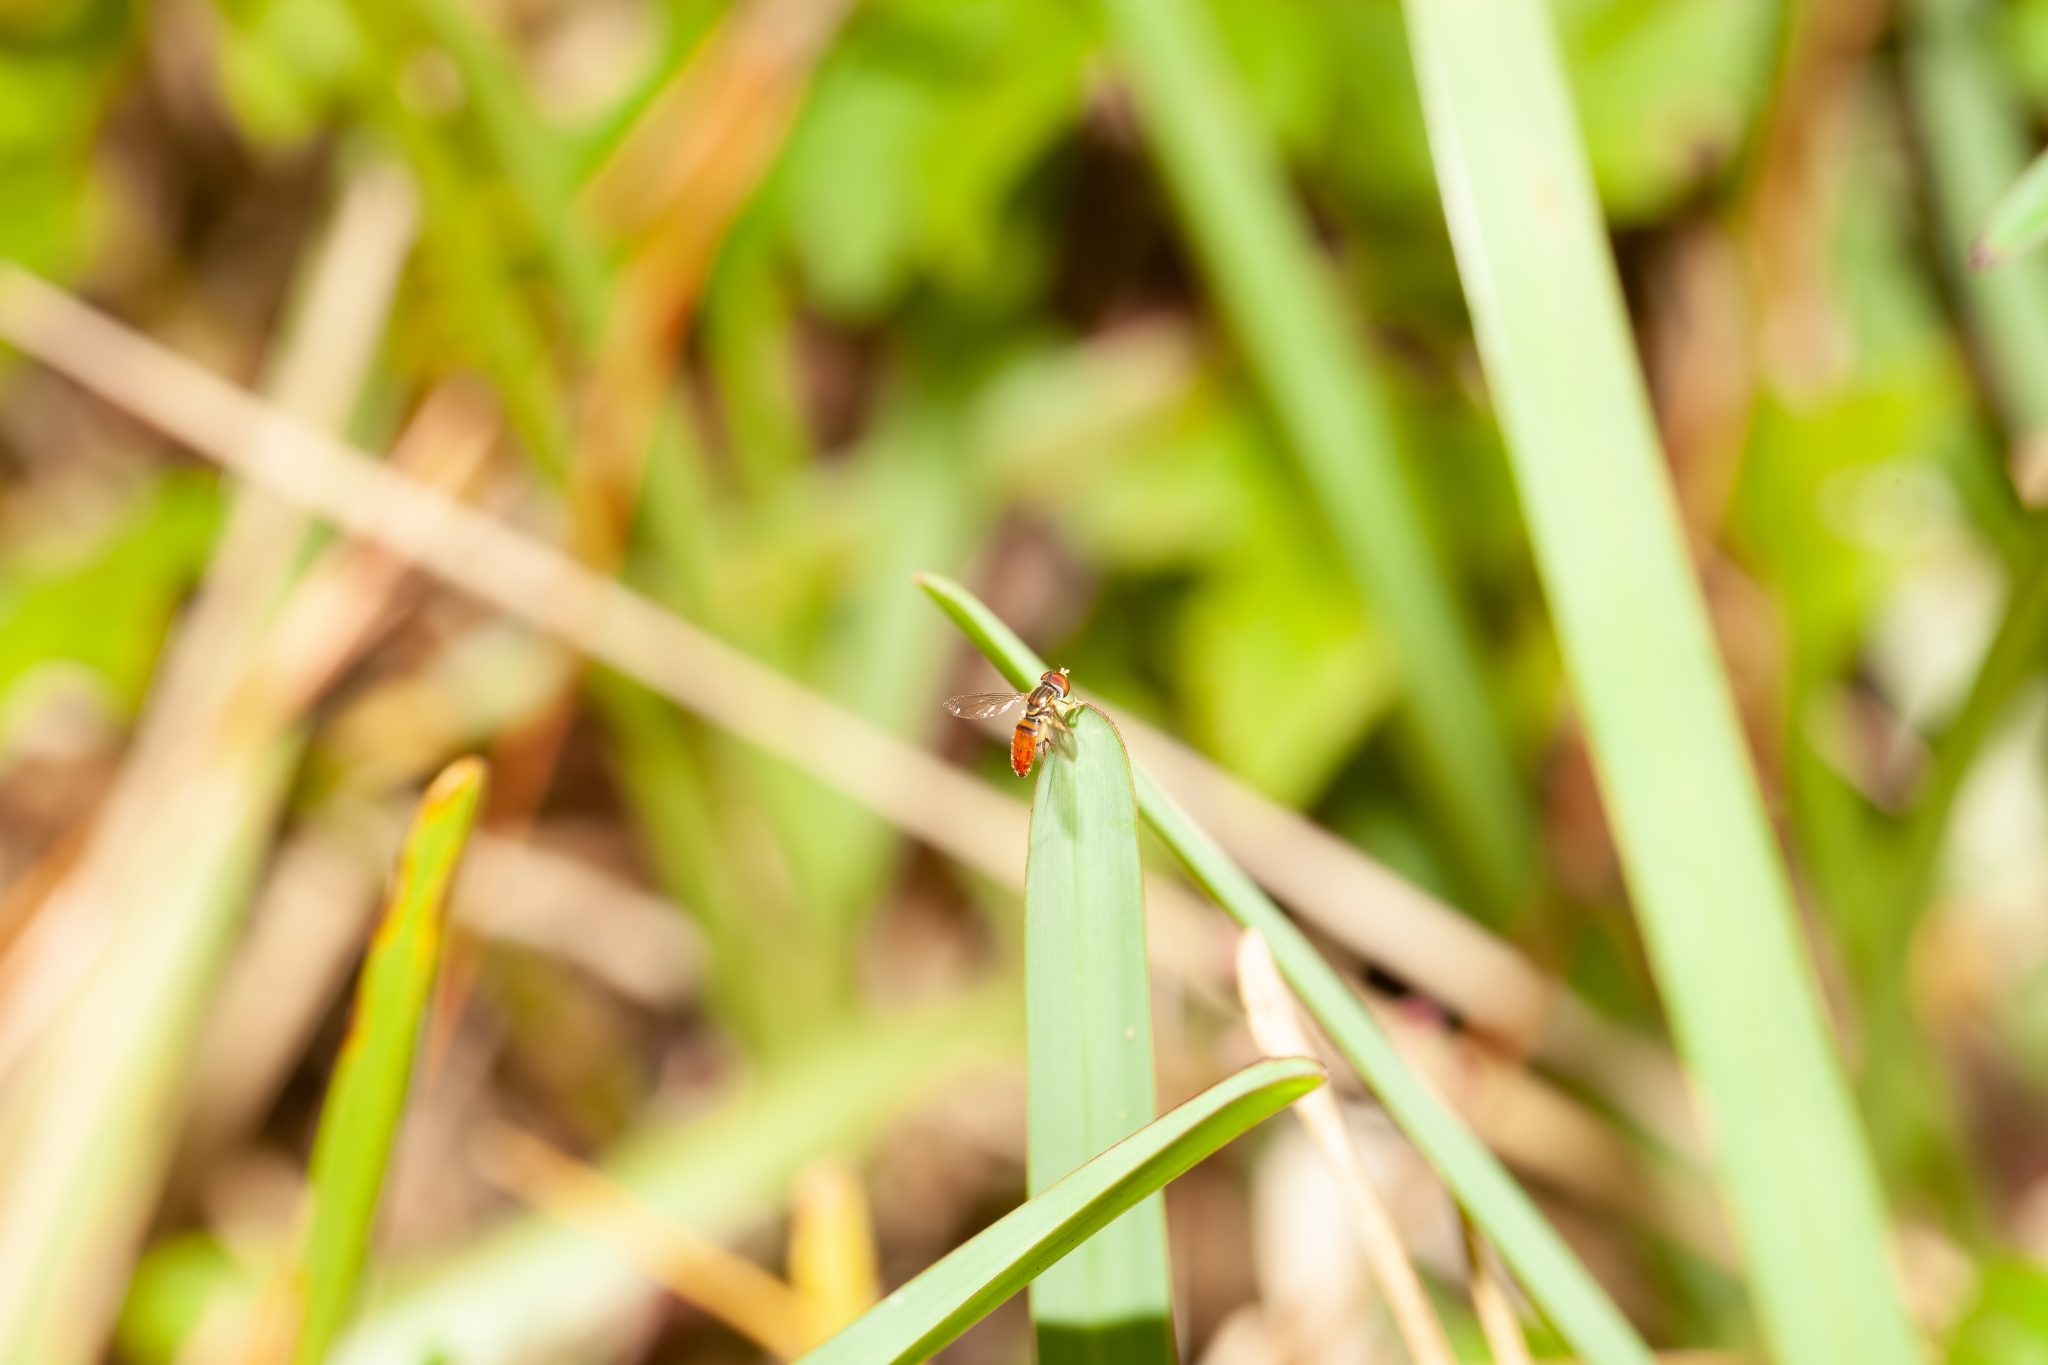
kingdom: Animalia
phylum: Arthropoda
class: Insecta
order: Diptera
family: Syrphidae
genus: Toxomerus
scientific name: Toxomerus boscii
